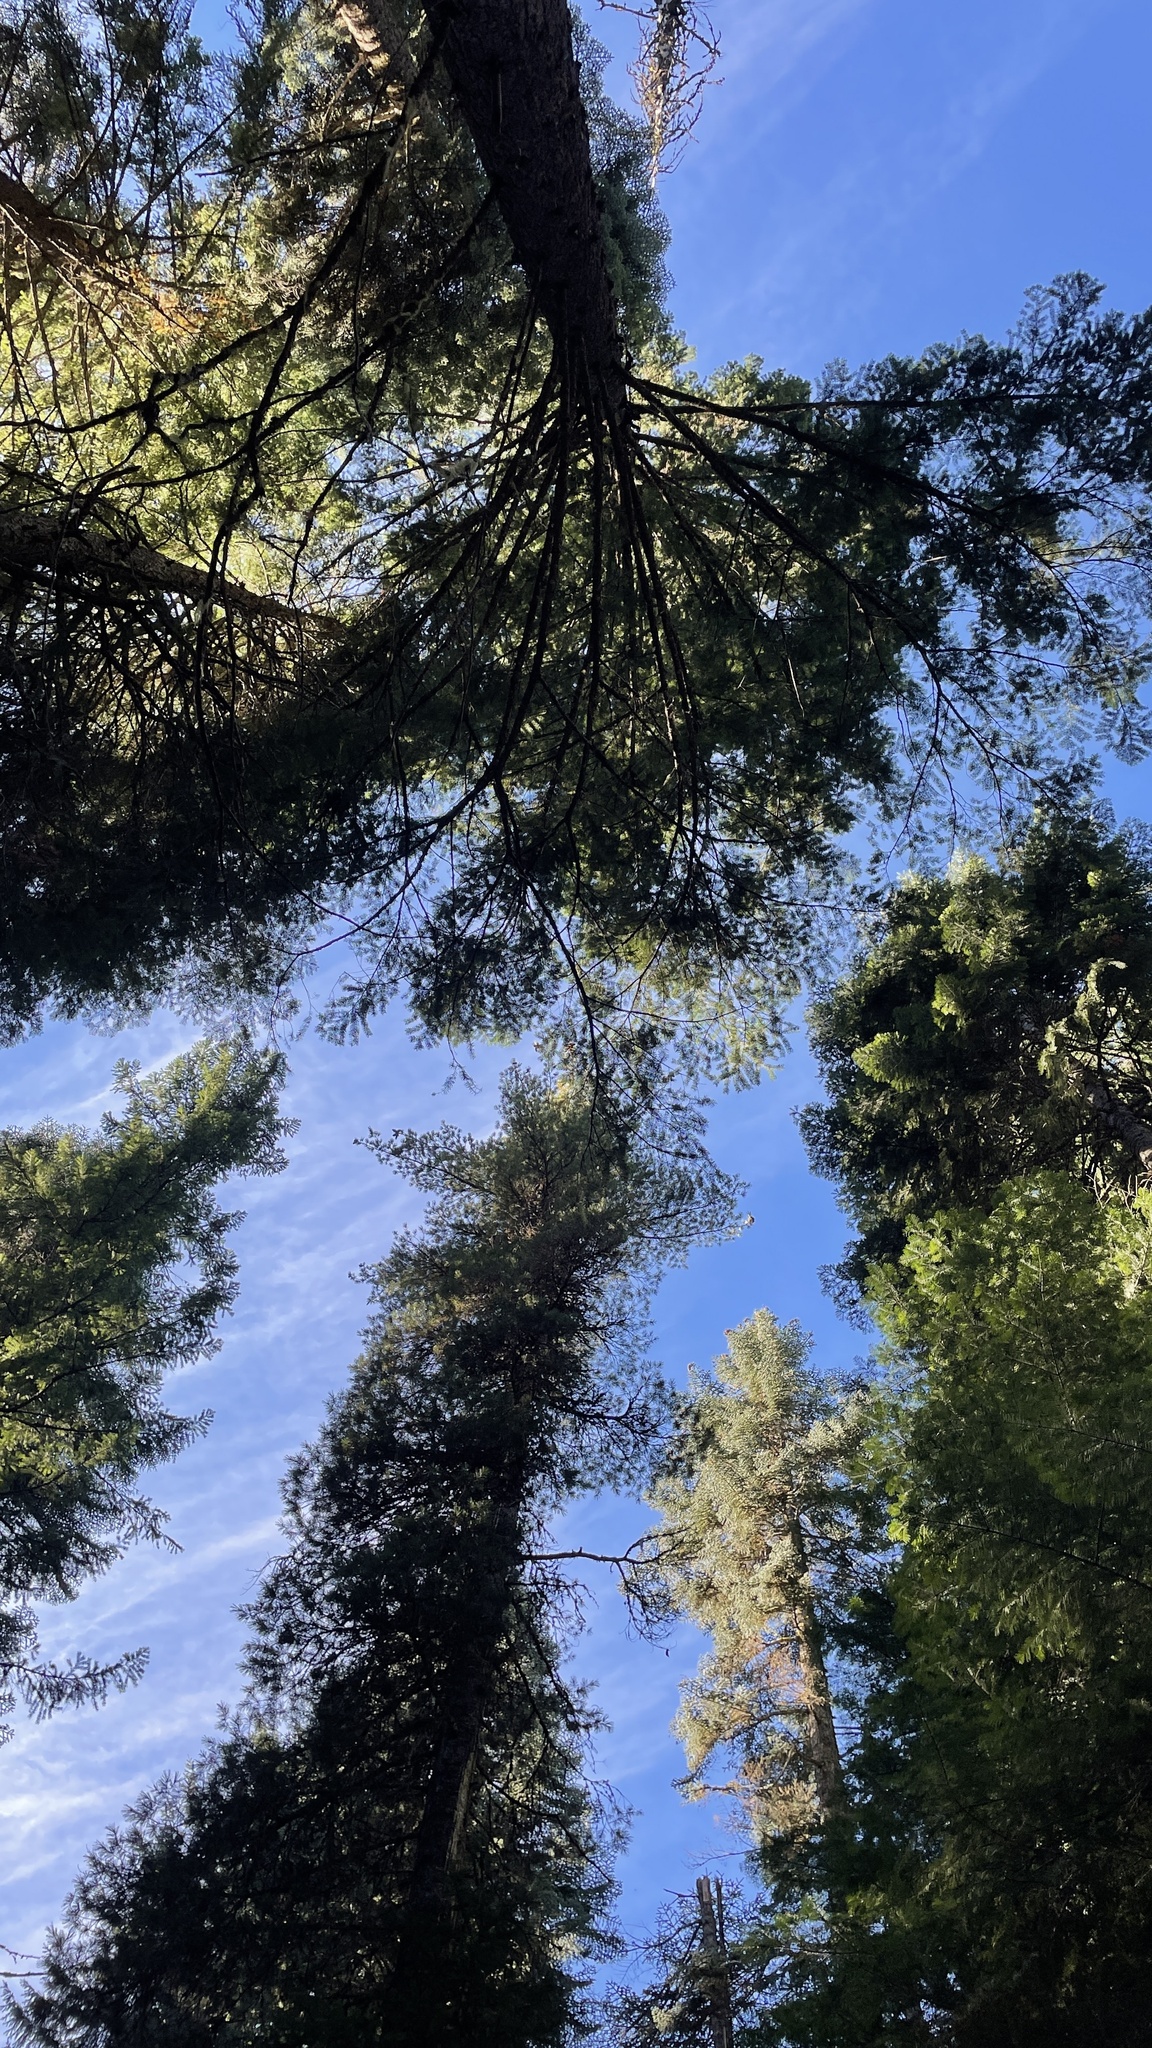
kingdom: Fungi
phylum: Basidiomycota
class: Agaricomycetes
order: Russulales
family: Russulaceae
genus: Russula
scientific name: Russula similaris
